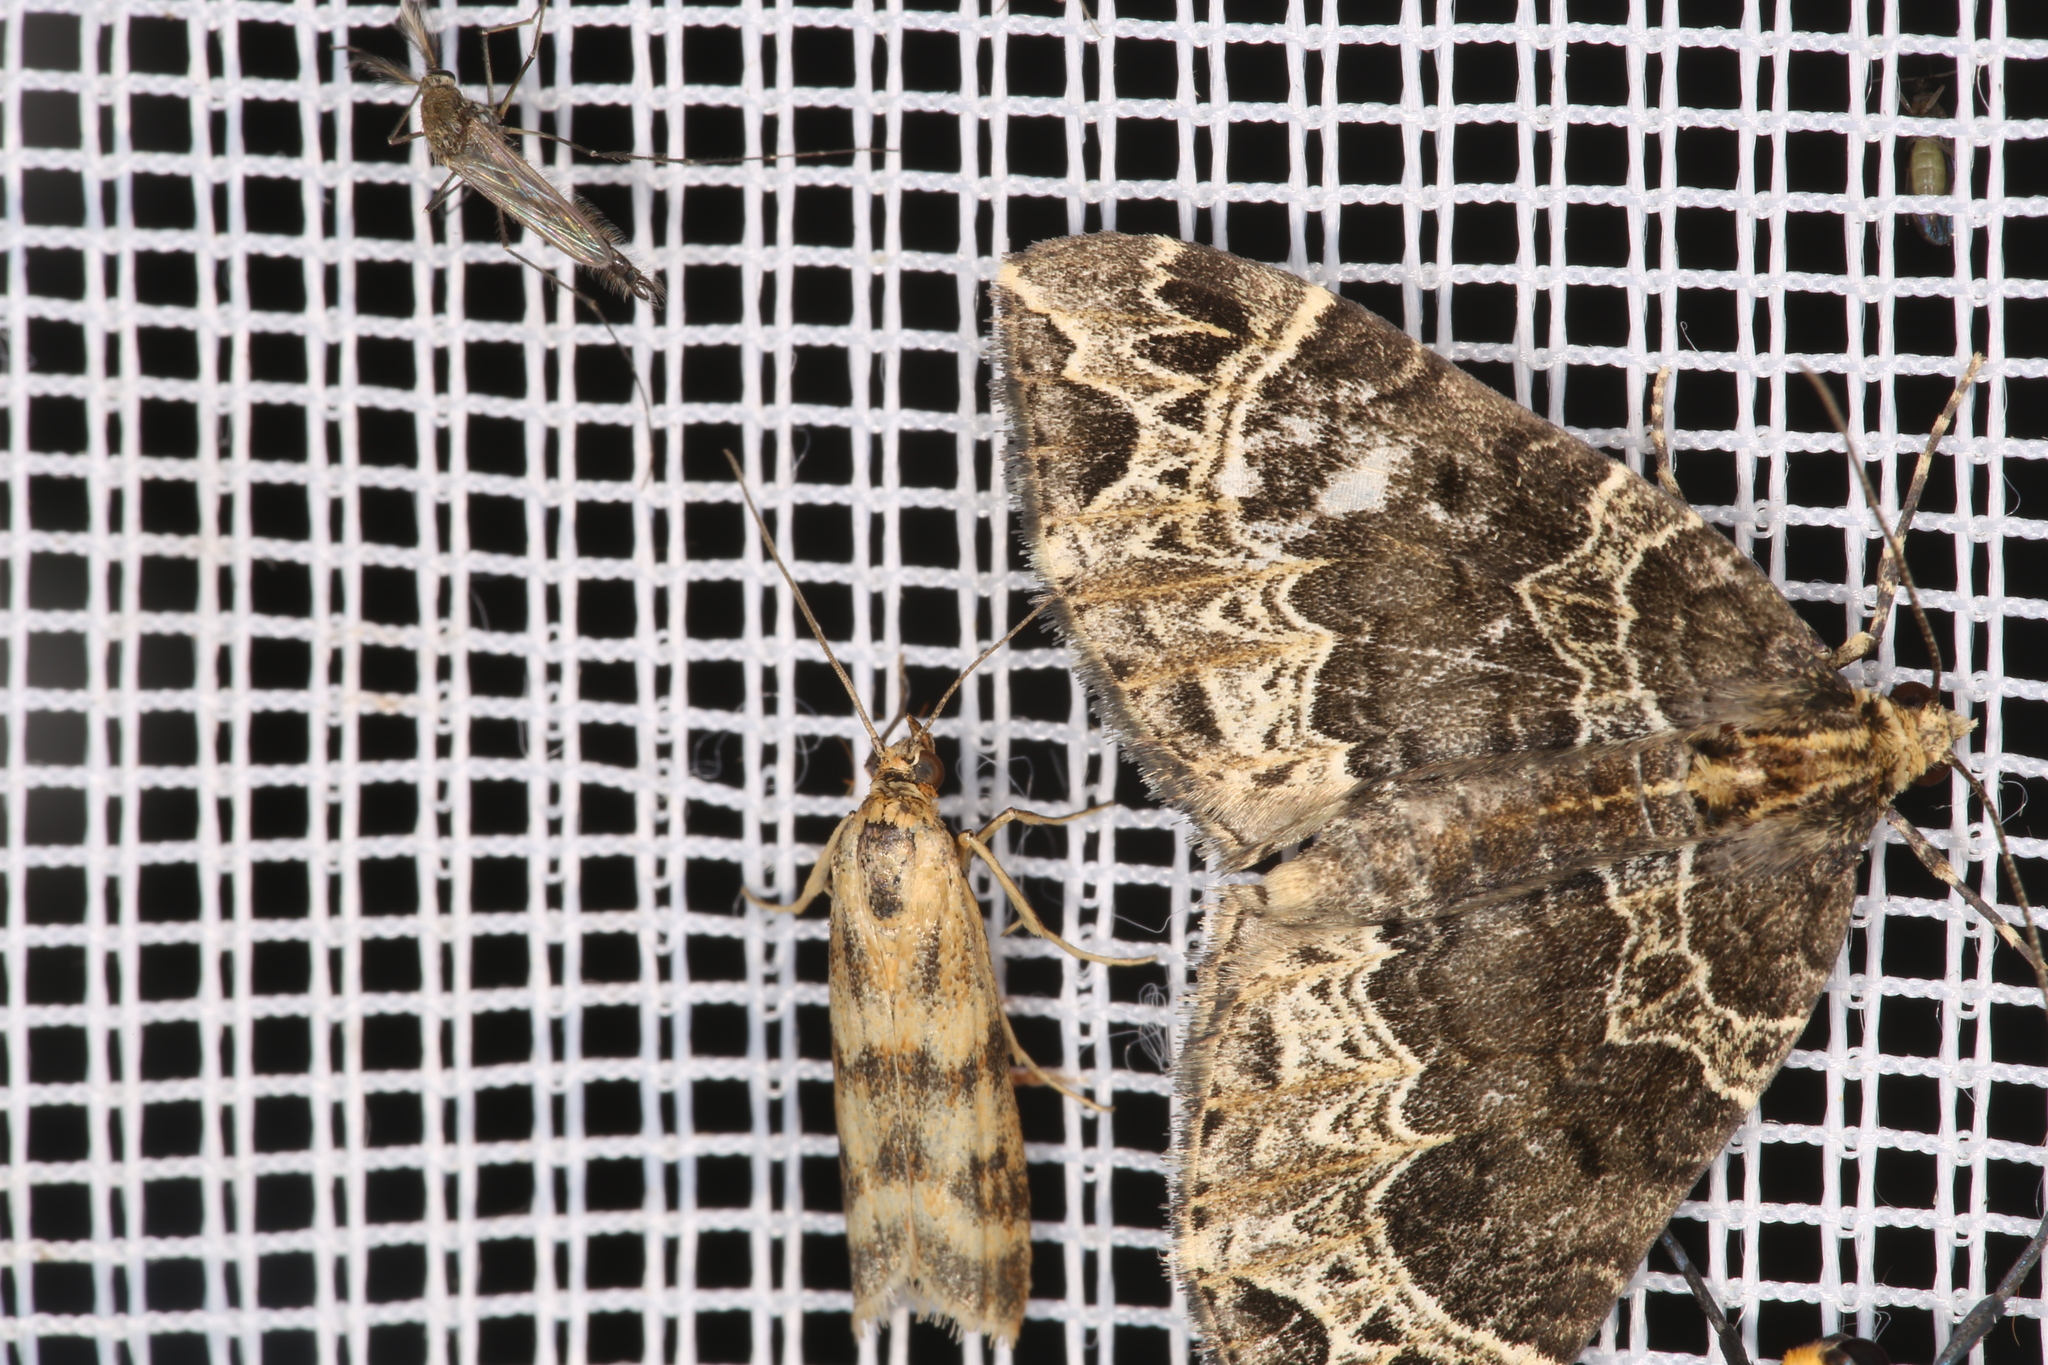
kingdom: Animalia
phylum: Arthropoda
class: Insecta
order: Lepidoptera
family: Geometridae
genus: Ecliptopera
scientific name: Ecliptopera silaceata
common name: Small phoenix
